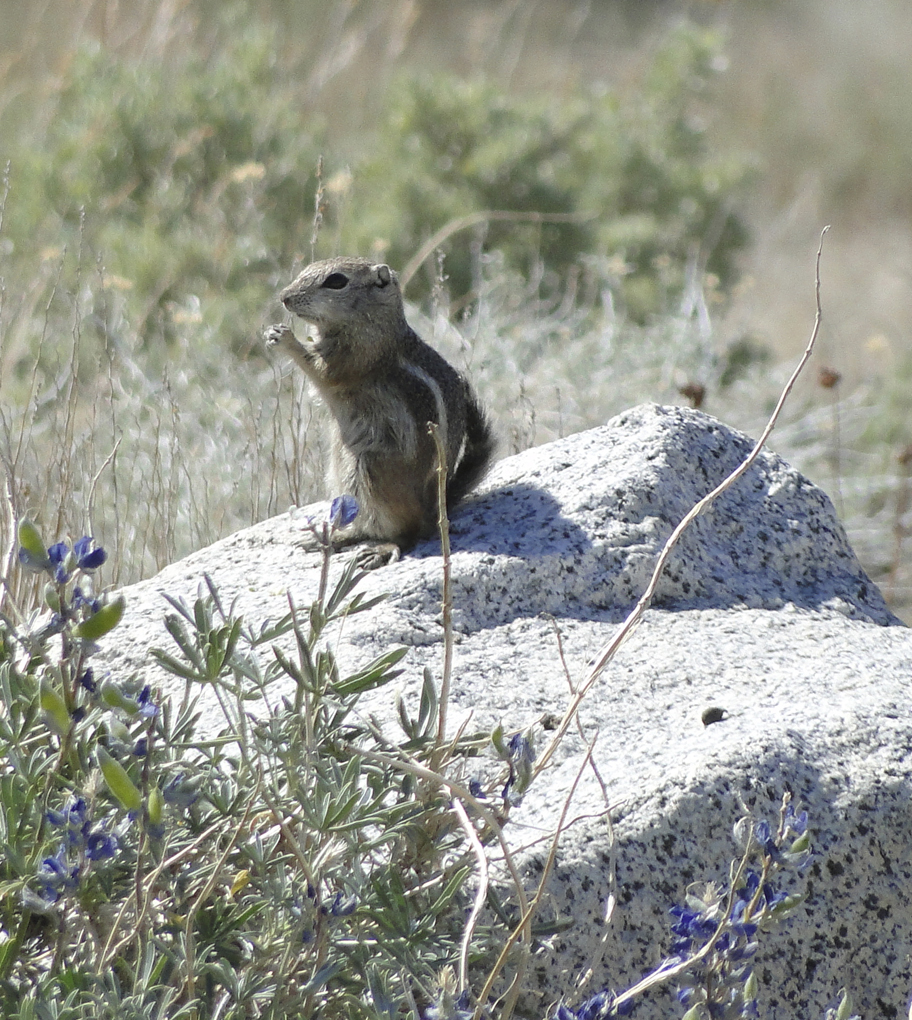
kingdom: Animalia
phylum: Chordata
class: Mammalia
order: Rodentia
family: Sciuridae
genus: Ammospermophilus
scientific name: Ammospermophilus leucurus
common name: White-tailed antelope squirrel
